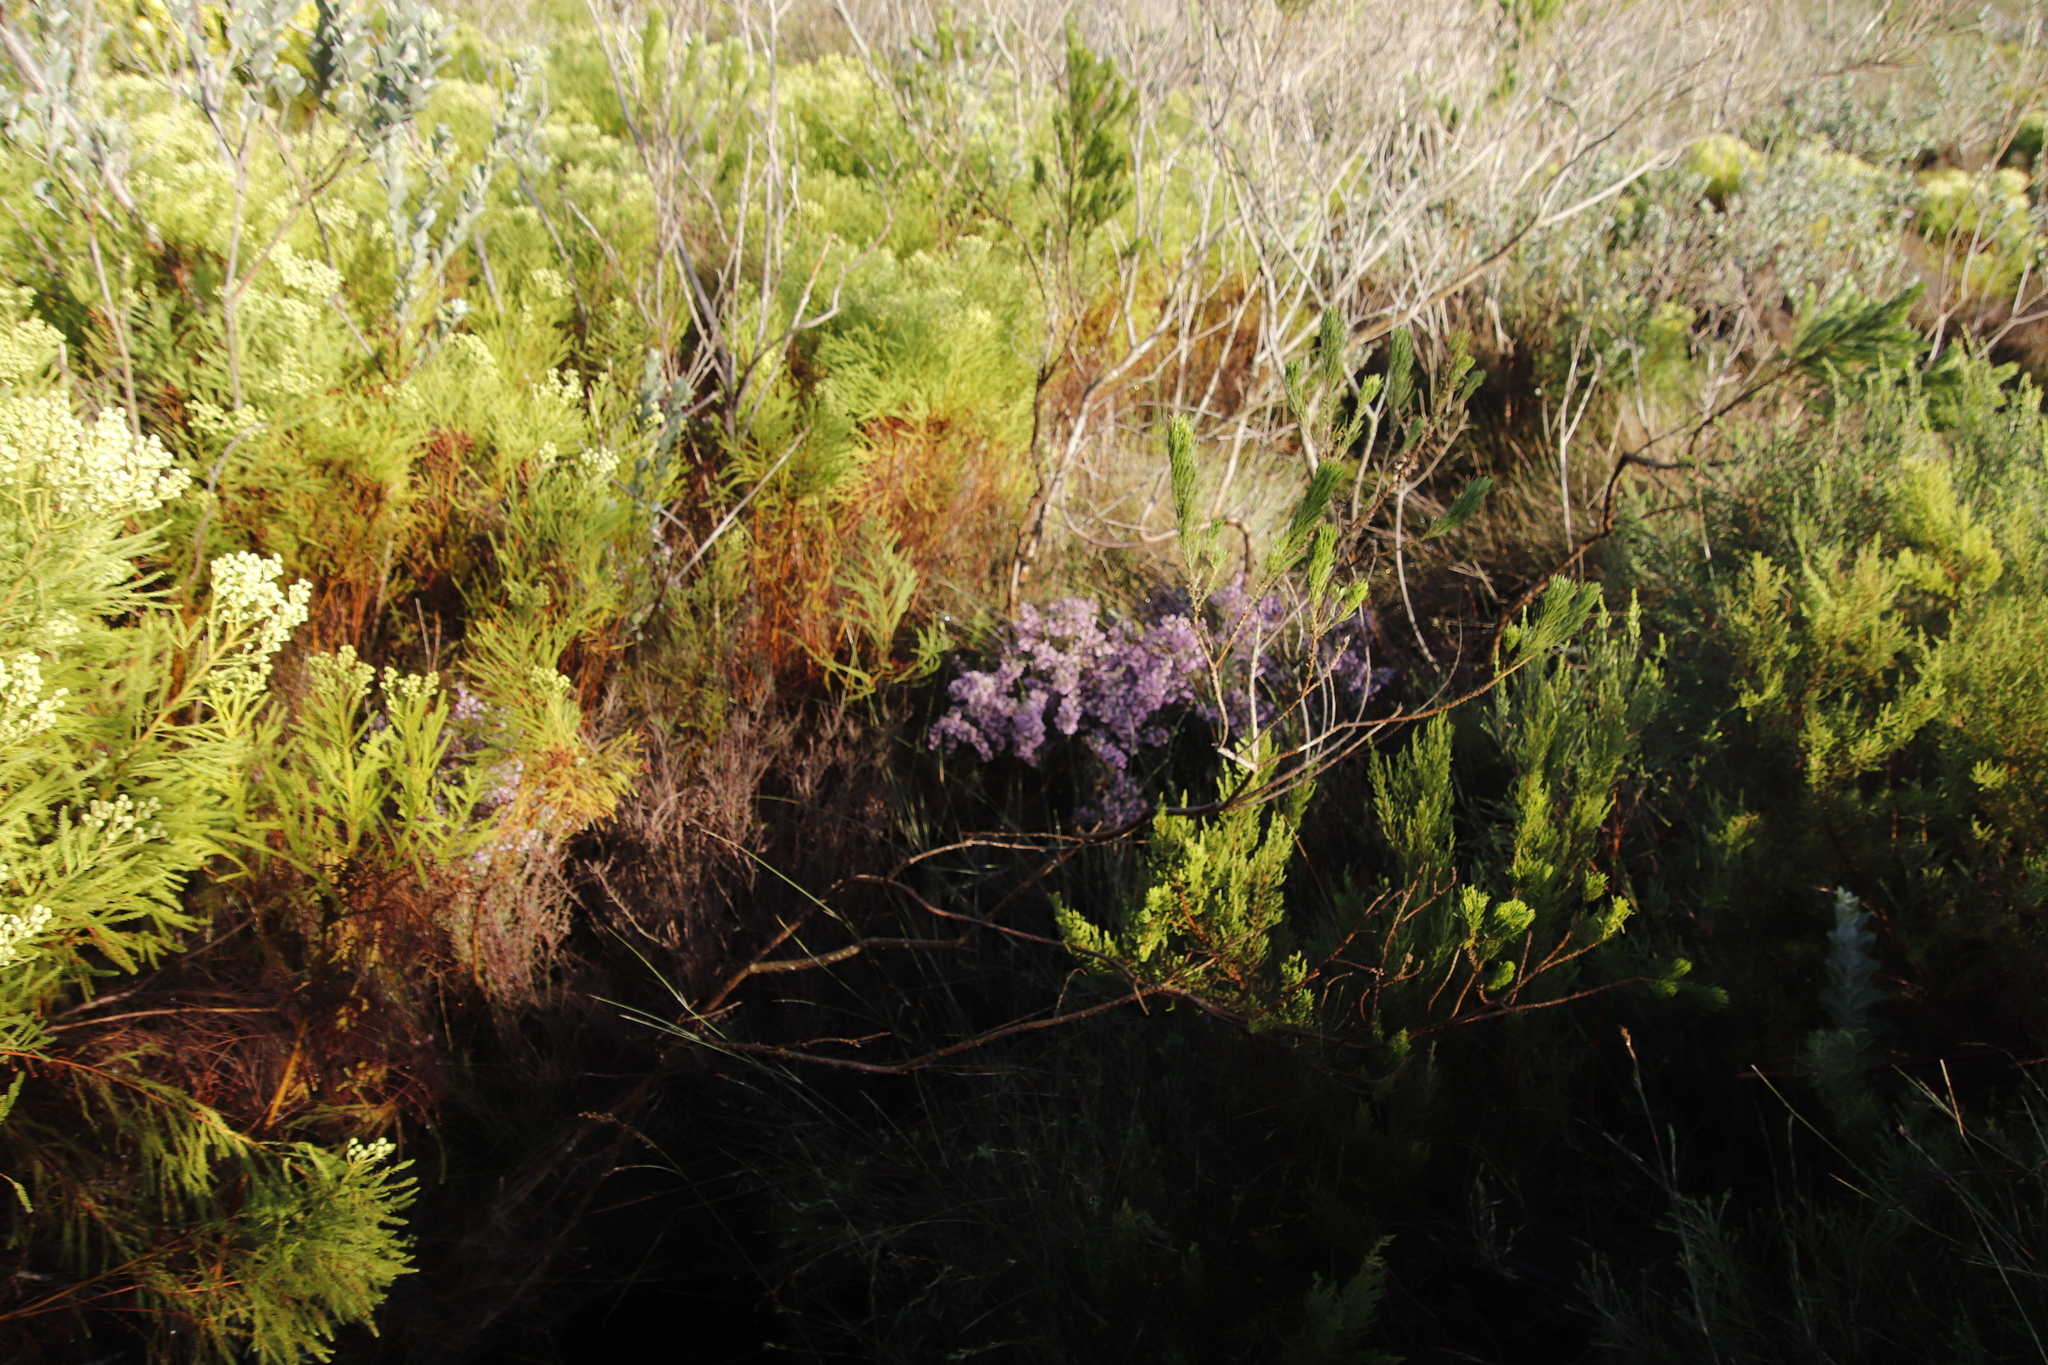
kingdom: Plantae
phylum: Tracheophyta
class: Magnoliopsida
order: Ericales
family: Ericaceae
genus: Erica
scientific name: Erica hirtiflora
